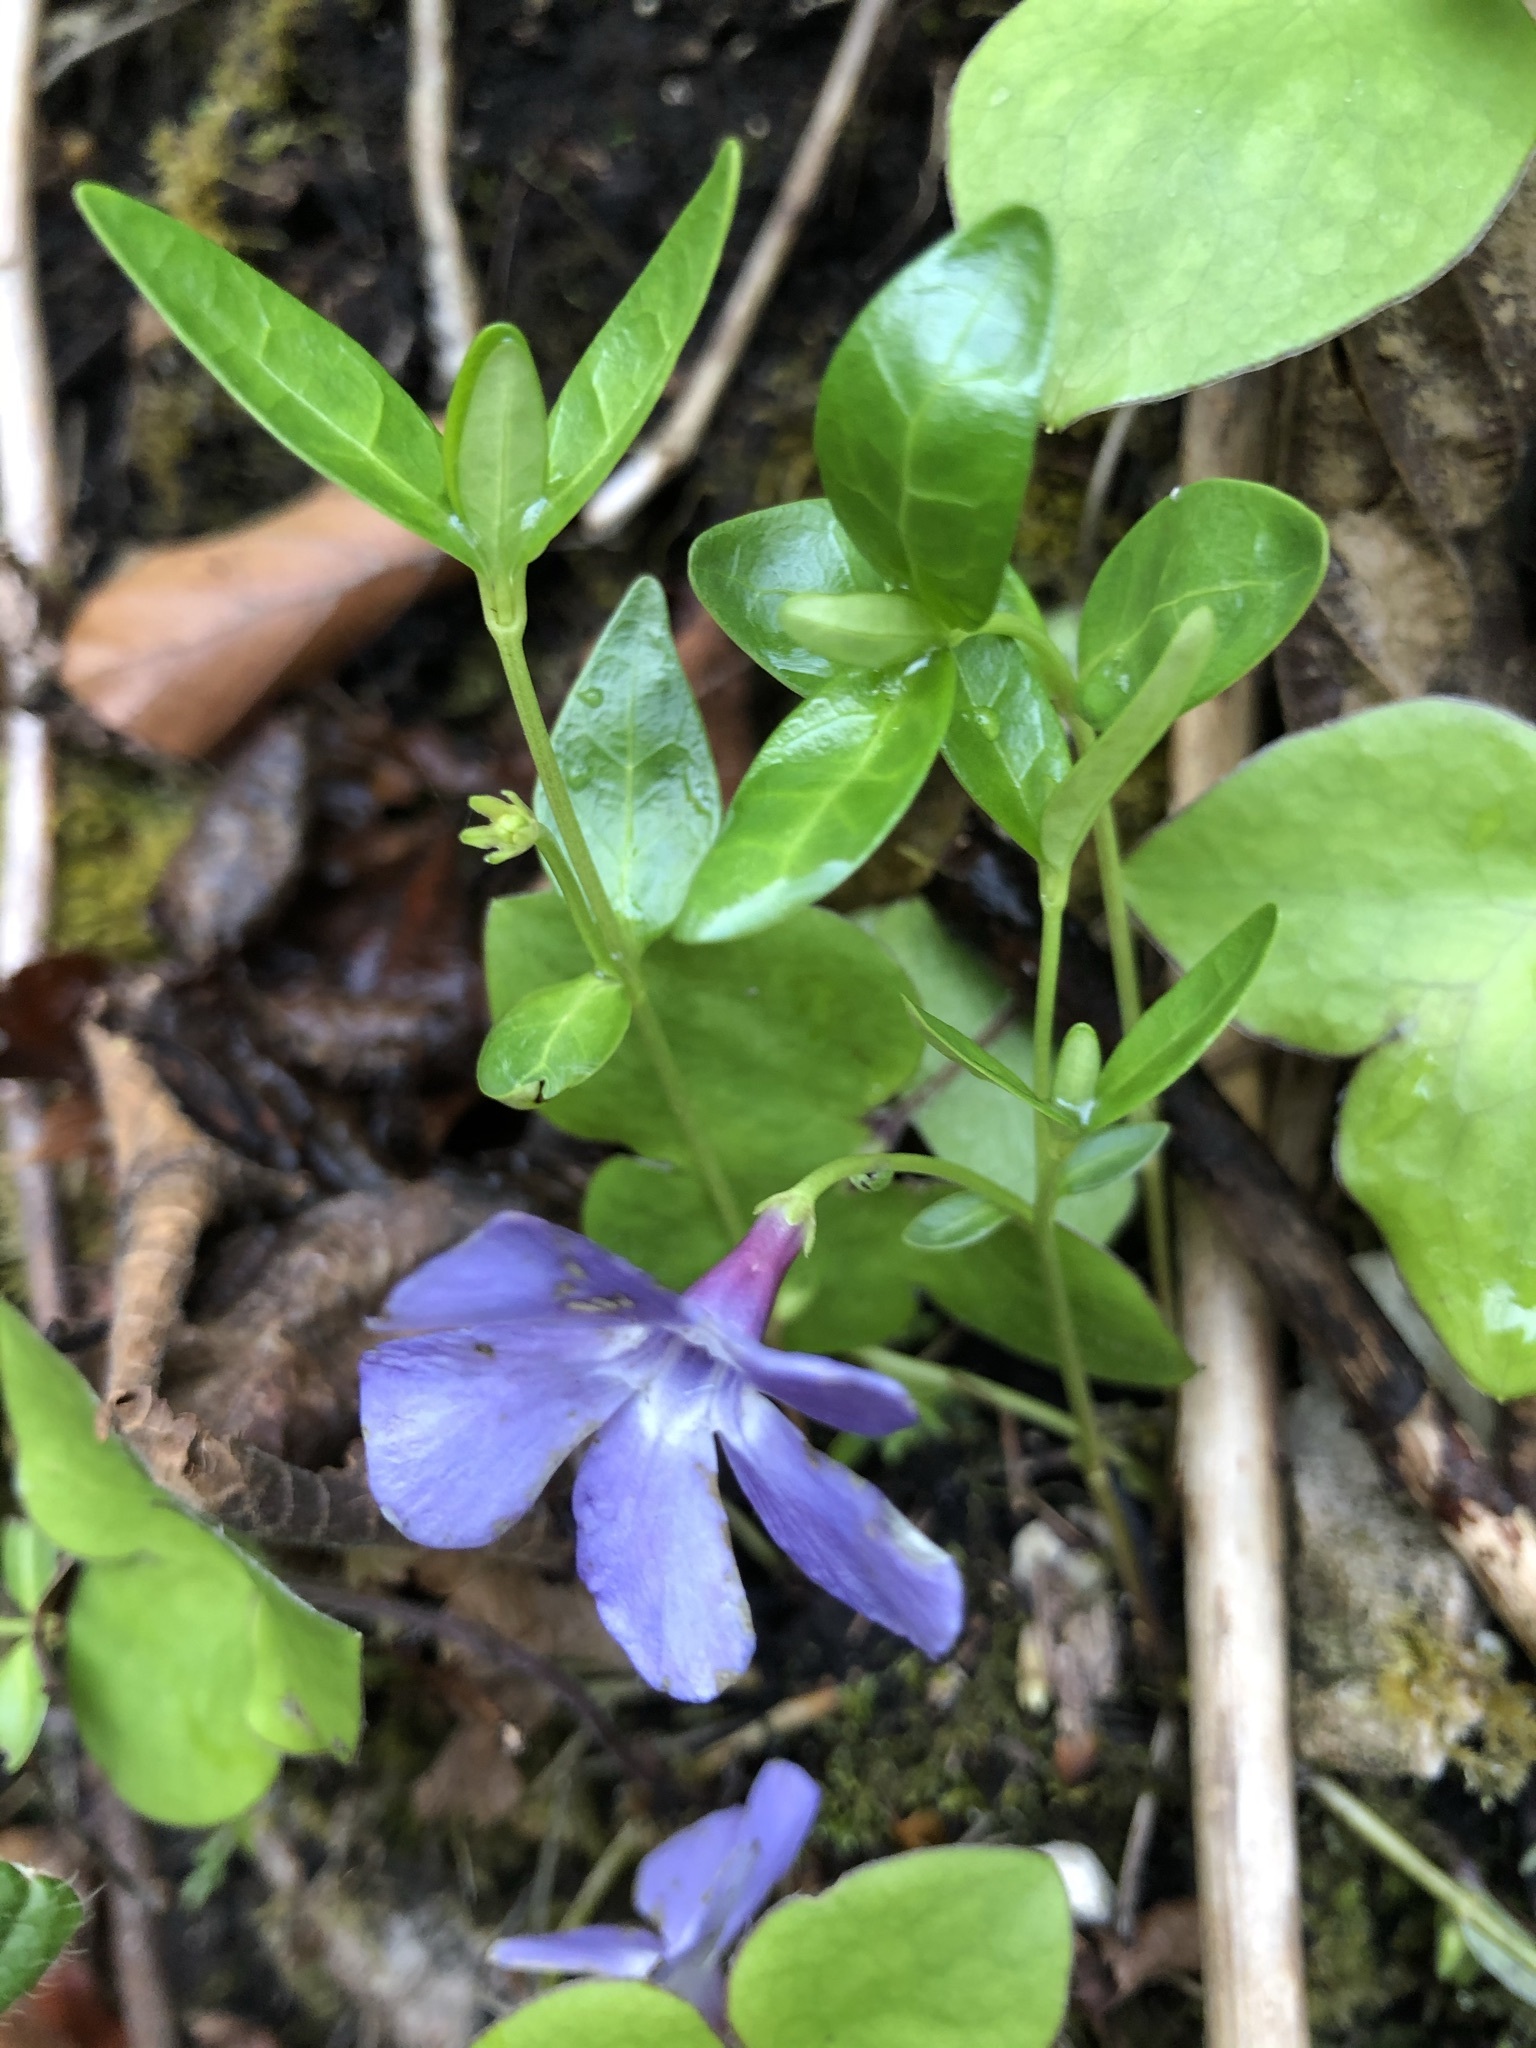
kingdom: Plantae
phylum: Tracheophyta
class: Magnoliopsida
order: Gentianales
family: Apocynaceae
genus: Vinca
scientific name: Vinca minor
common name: Lesser periwinkle
